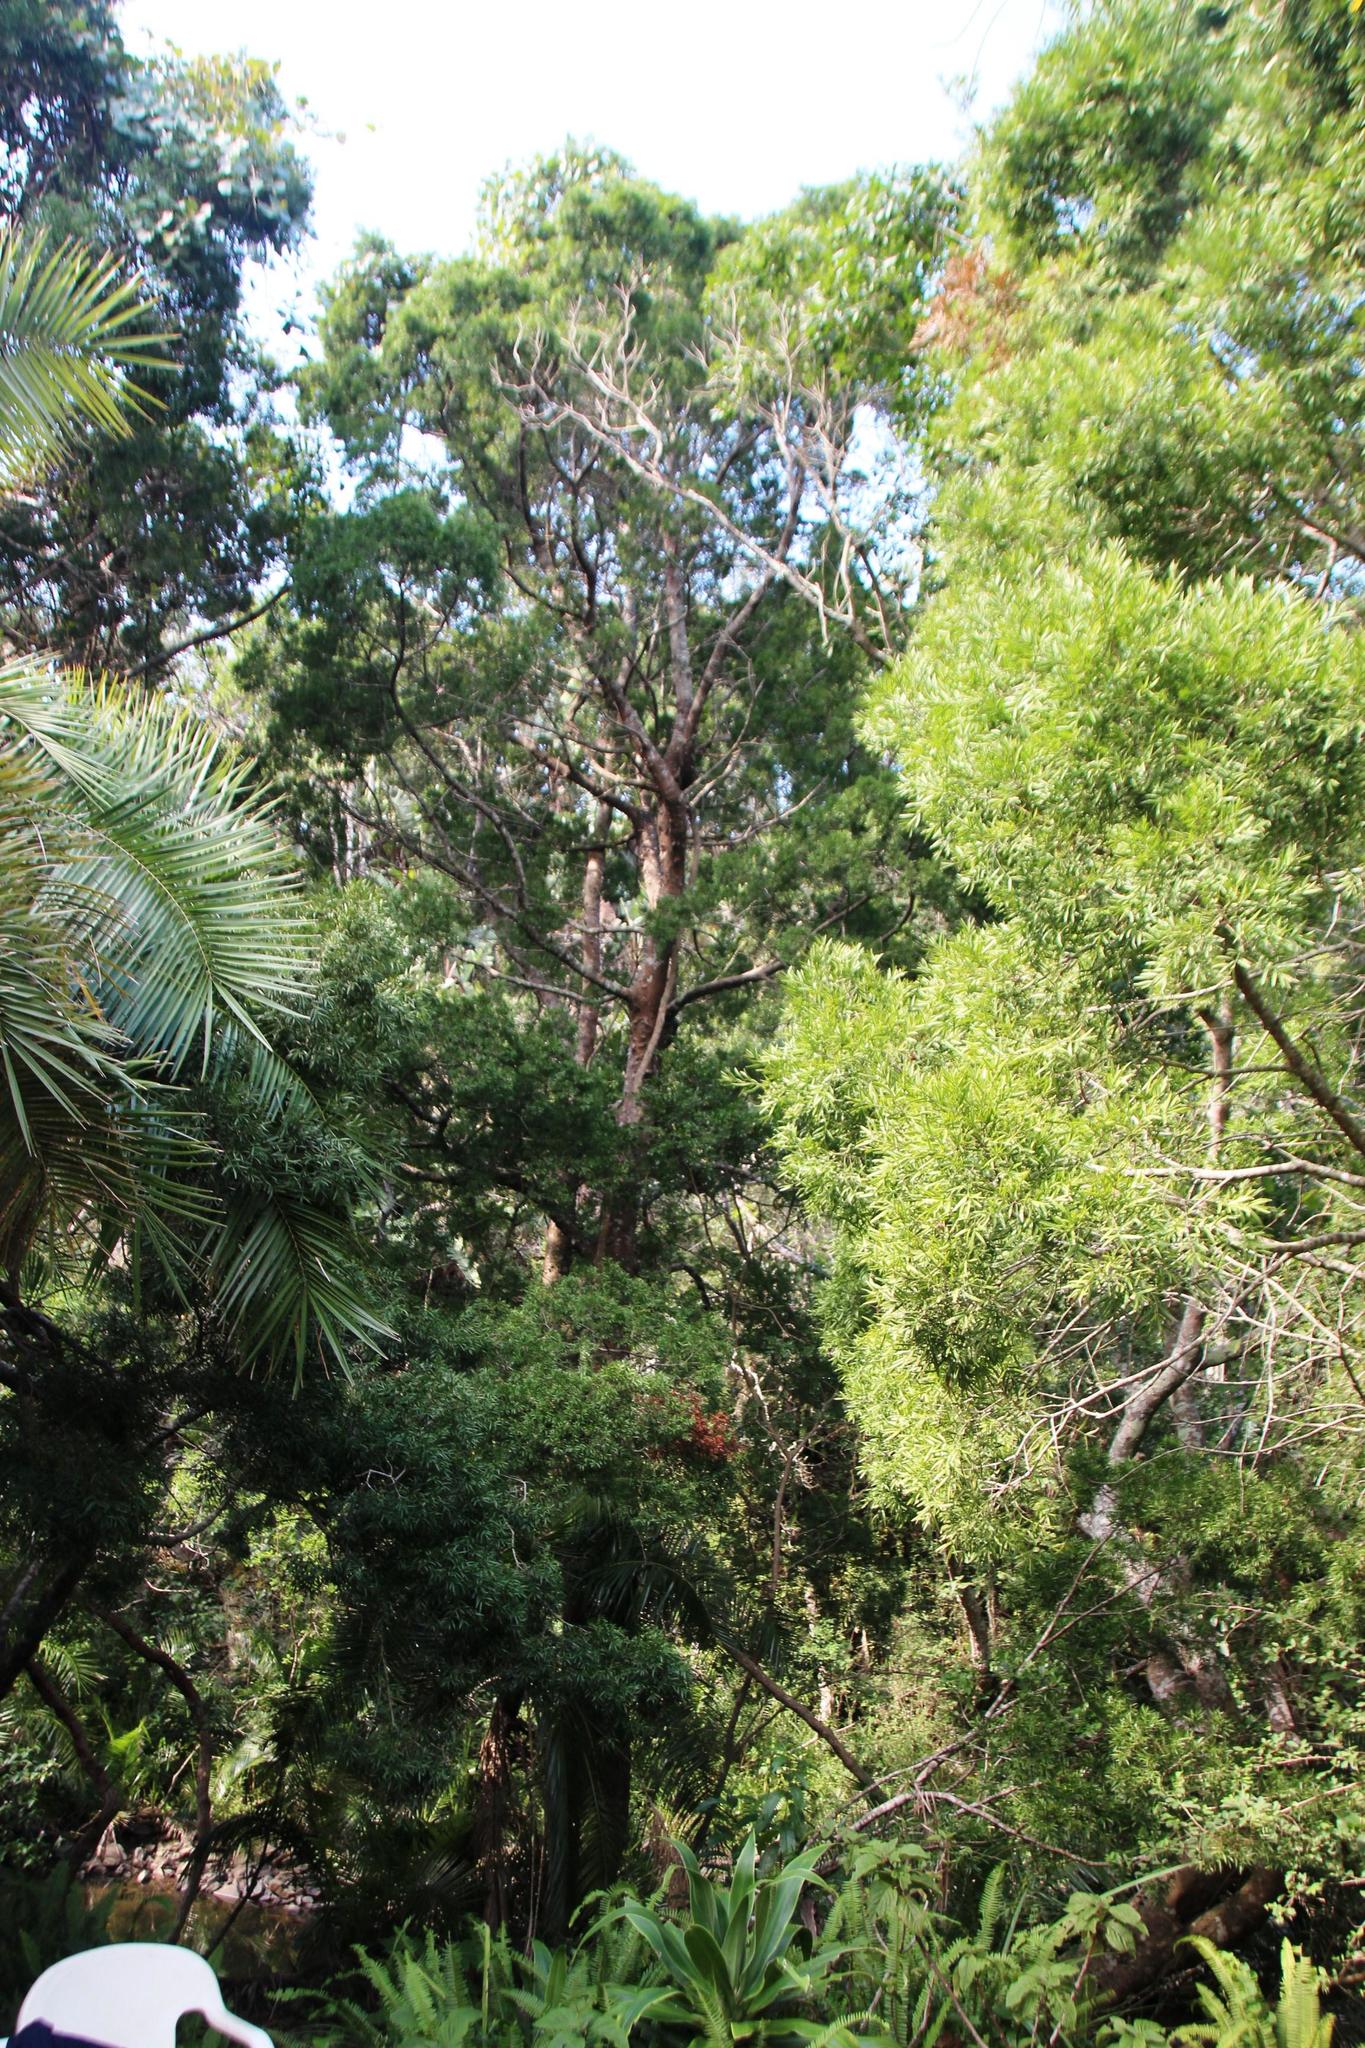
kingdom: Plantae
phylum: Tracheophyta
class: Pinopsida
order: Pinales
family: Podocarpaceae
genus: Afrocarpus
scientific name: Afrocarpus falcatus
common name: Bastard yellowwood
